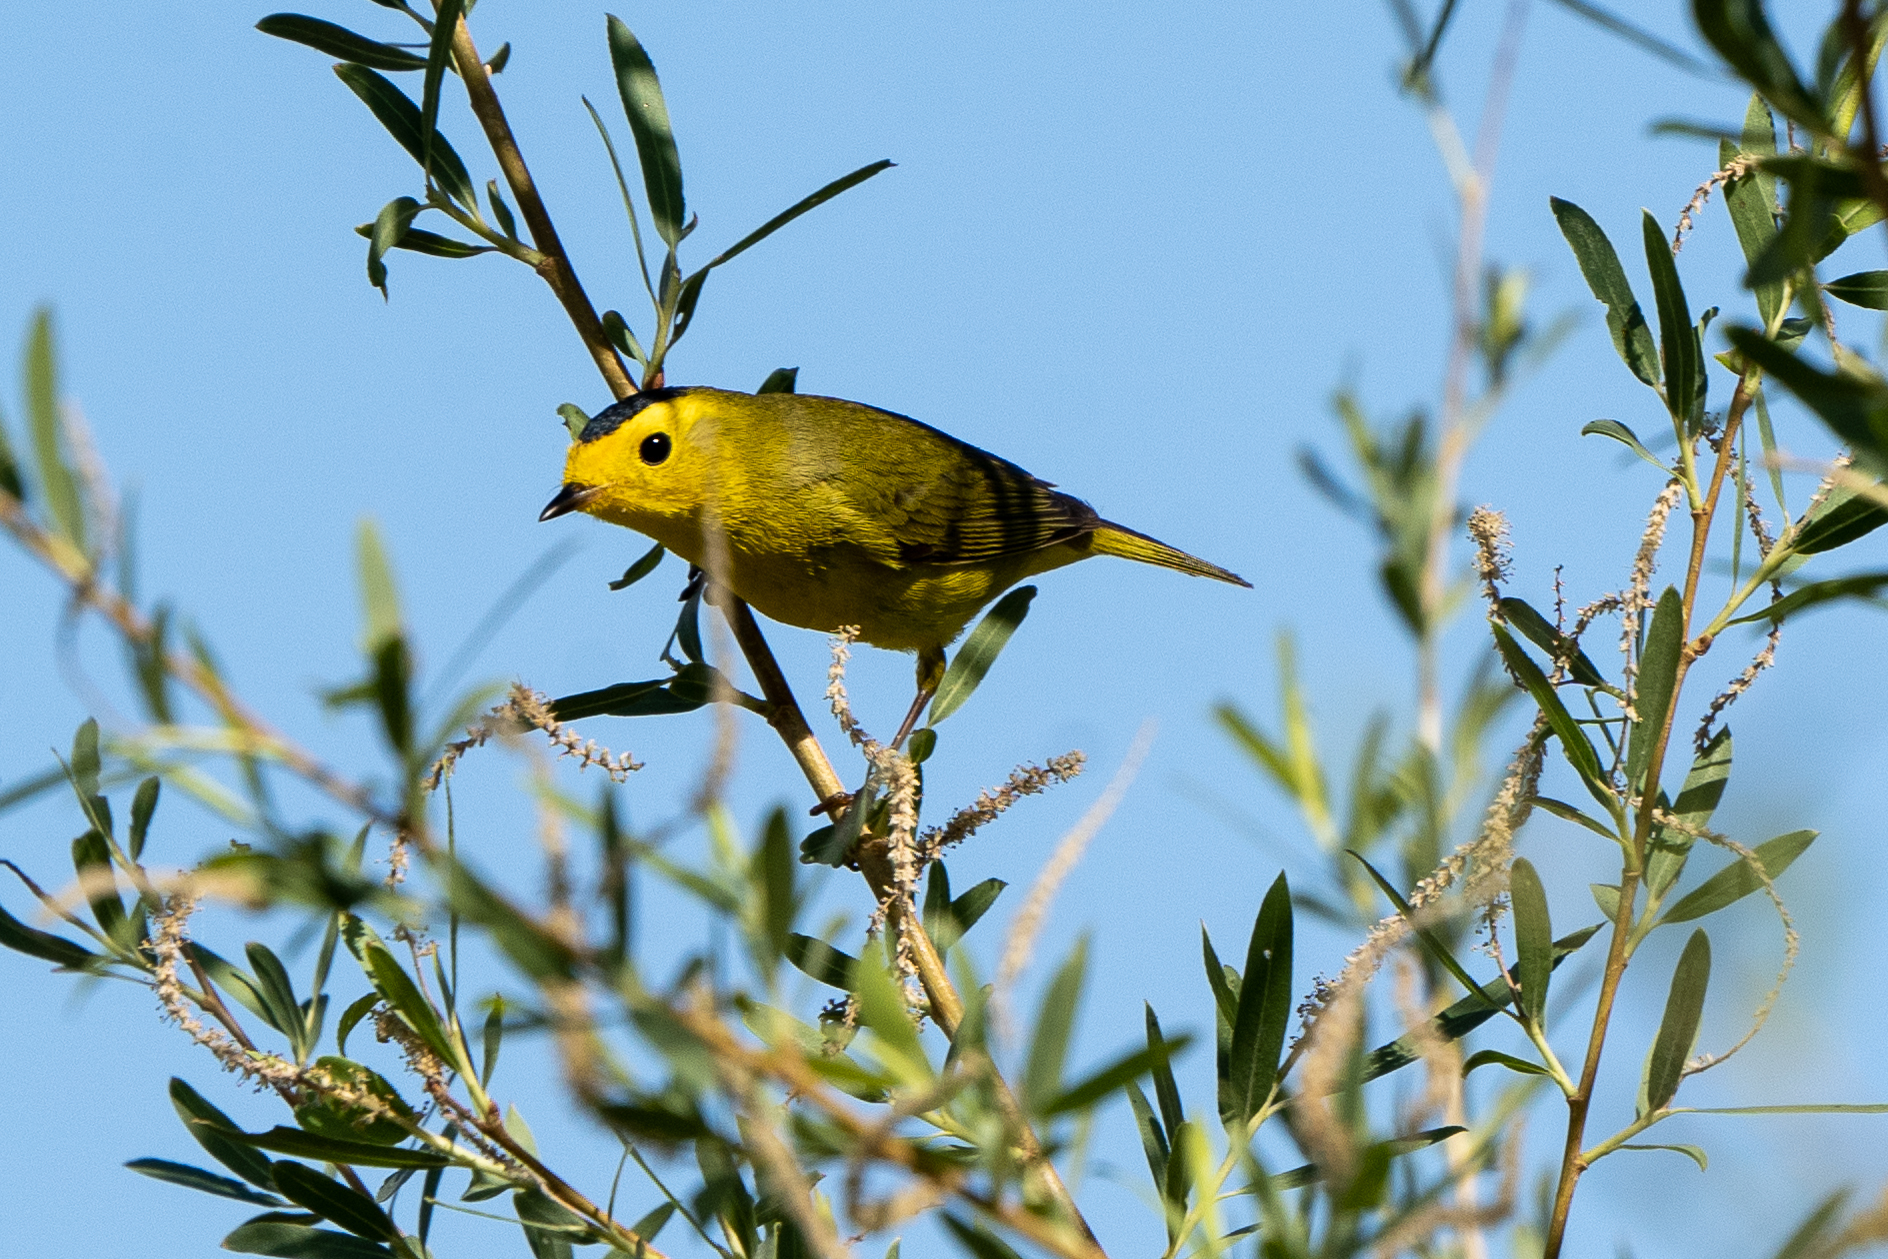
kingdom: Animalia
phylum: Chordata
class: Aves
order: Passeriformes
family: Parulidae
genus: Cardellina
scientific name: Cardellina pusilla
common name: Wilson's warbler
